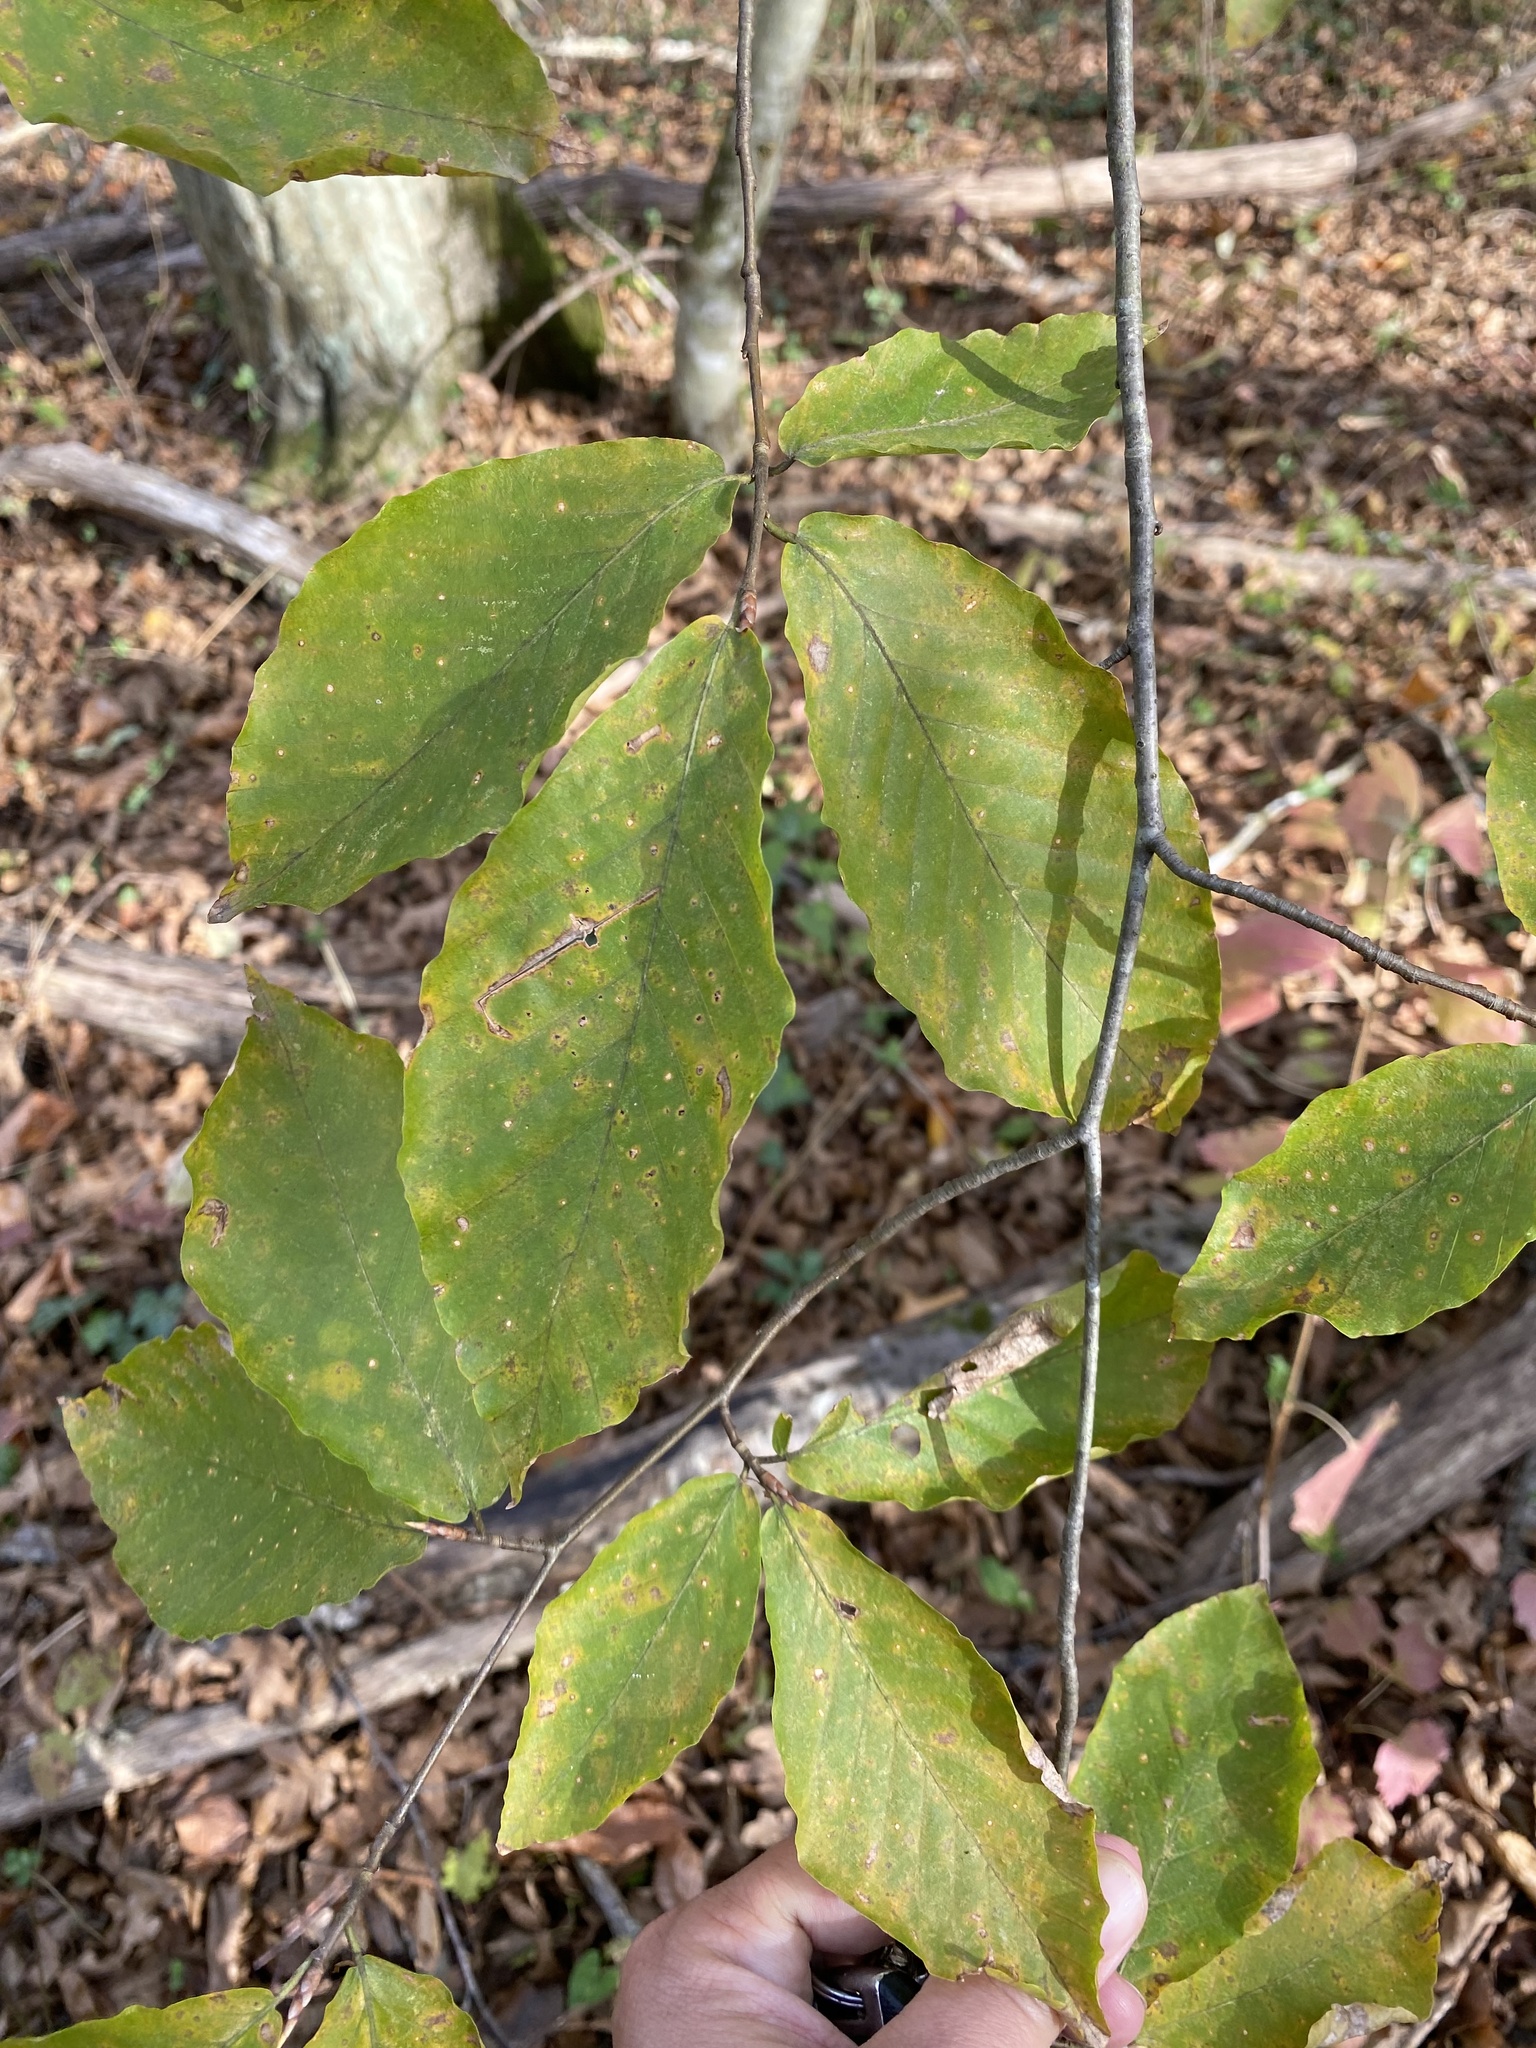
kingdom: Plantae
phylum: Tracheophyta
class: Magnoliopsida
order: Fagales
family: Fagaceae
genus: Fagus
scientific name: Fagus orientalis
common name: Oriental beech
